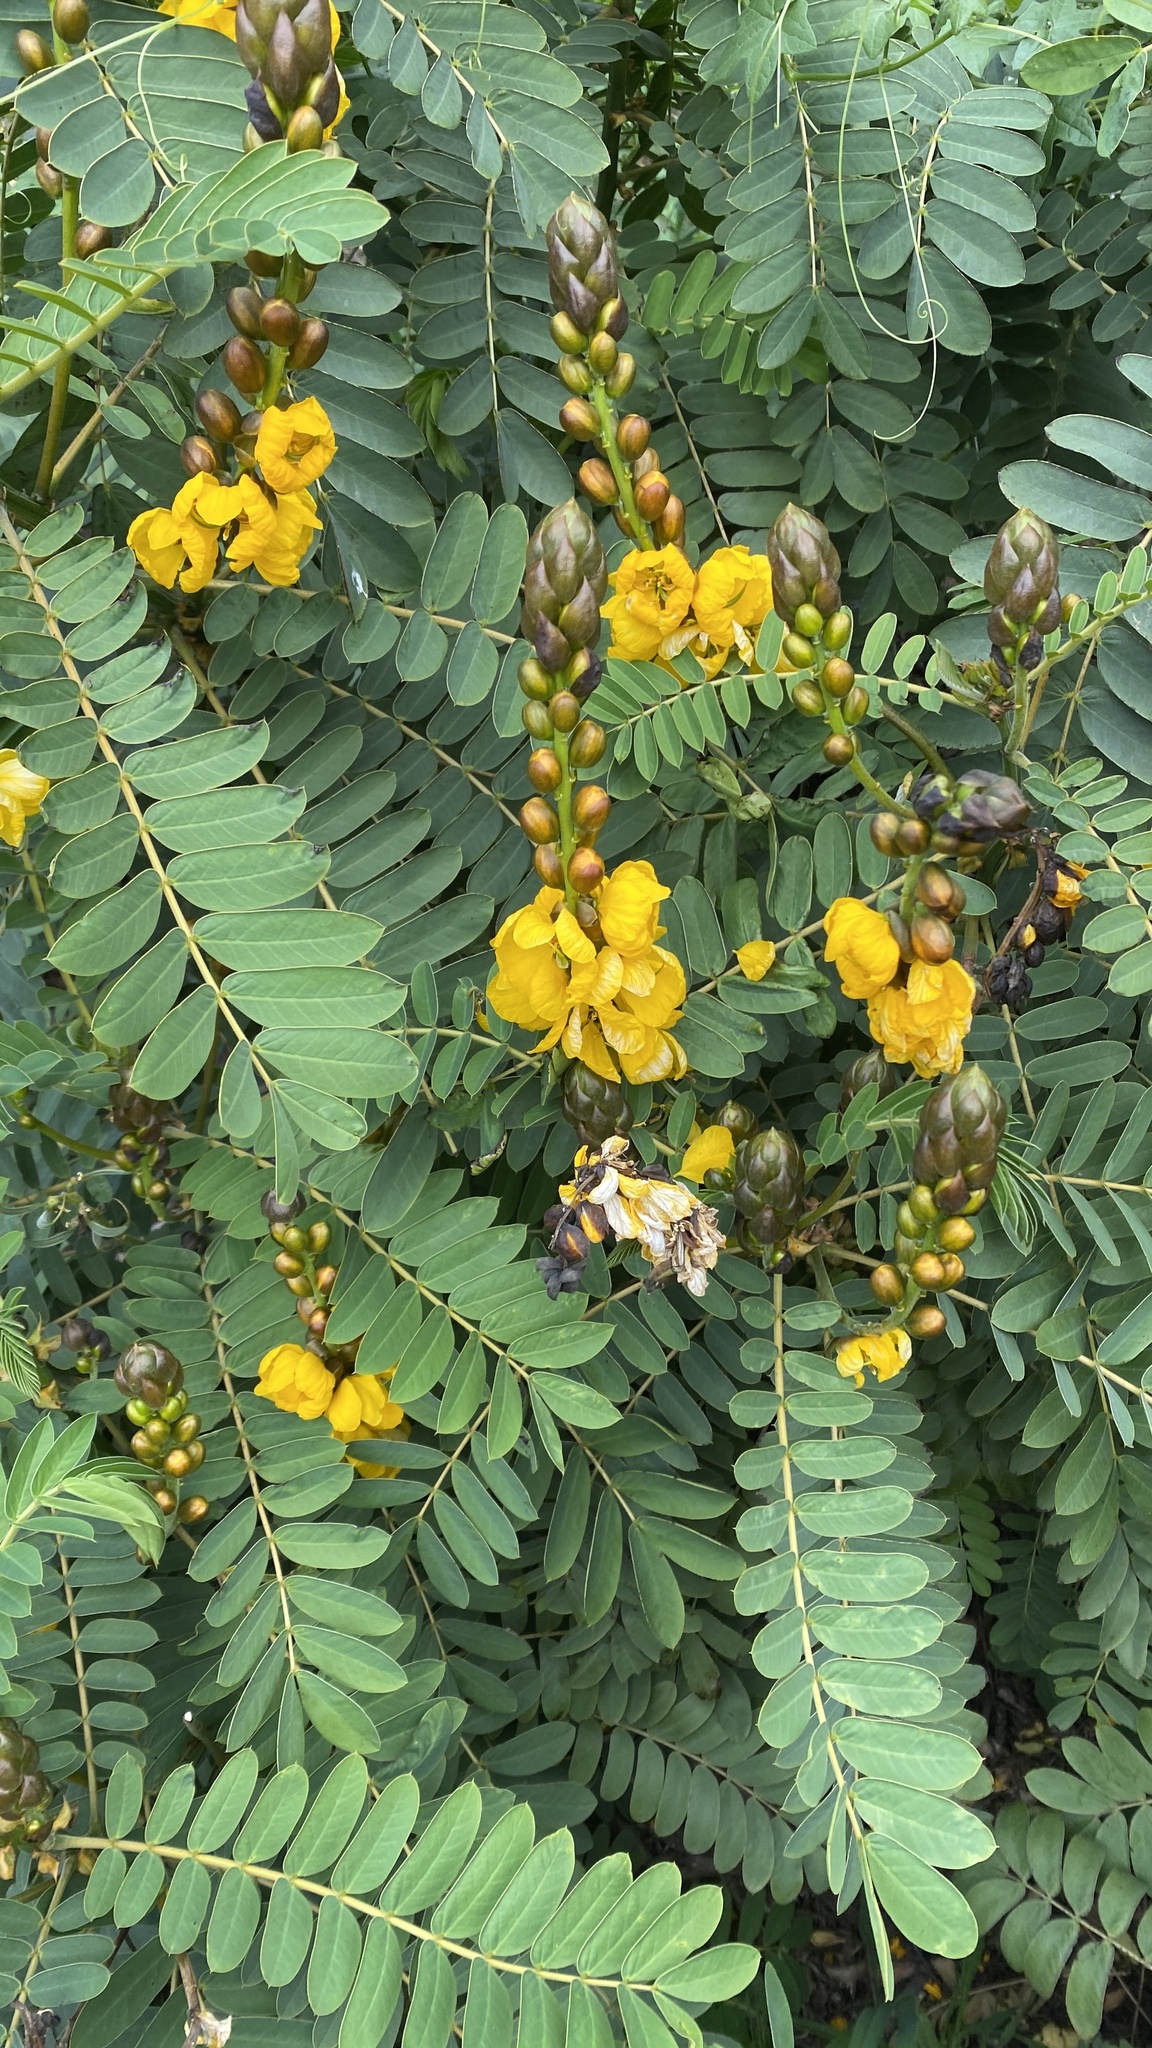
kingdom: Plantae
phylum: Tracheophyta
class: Magnoliopsida
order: Fabales
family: Fabaceae
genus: Senna
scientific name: Senna didymobotrya
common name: African senna
